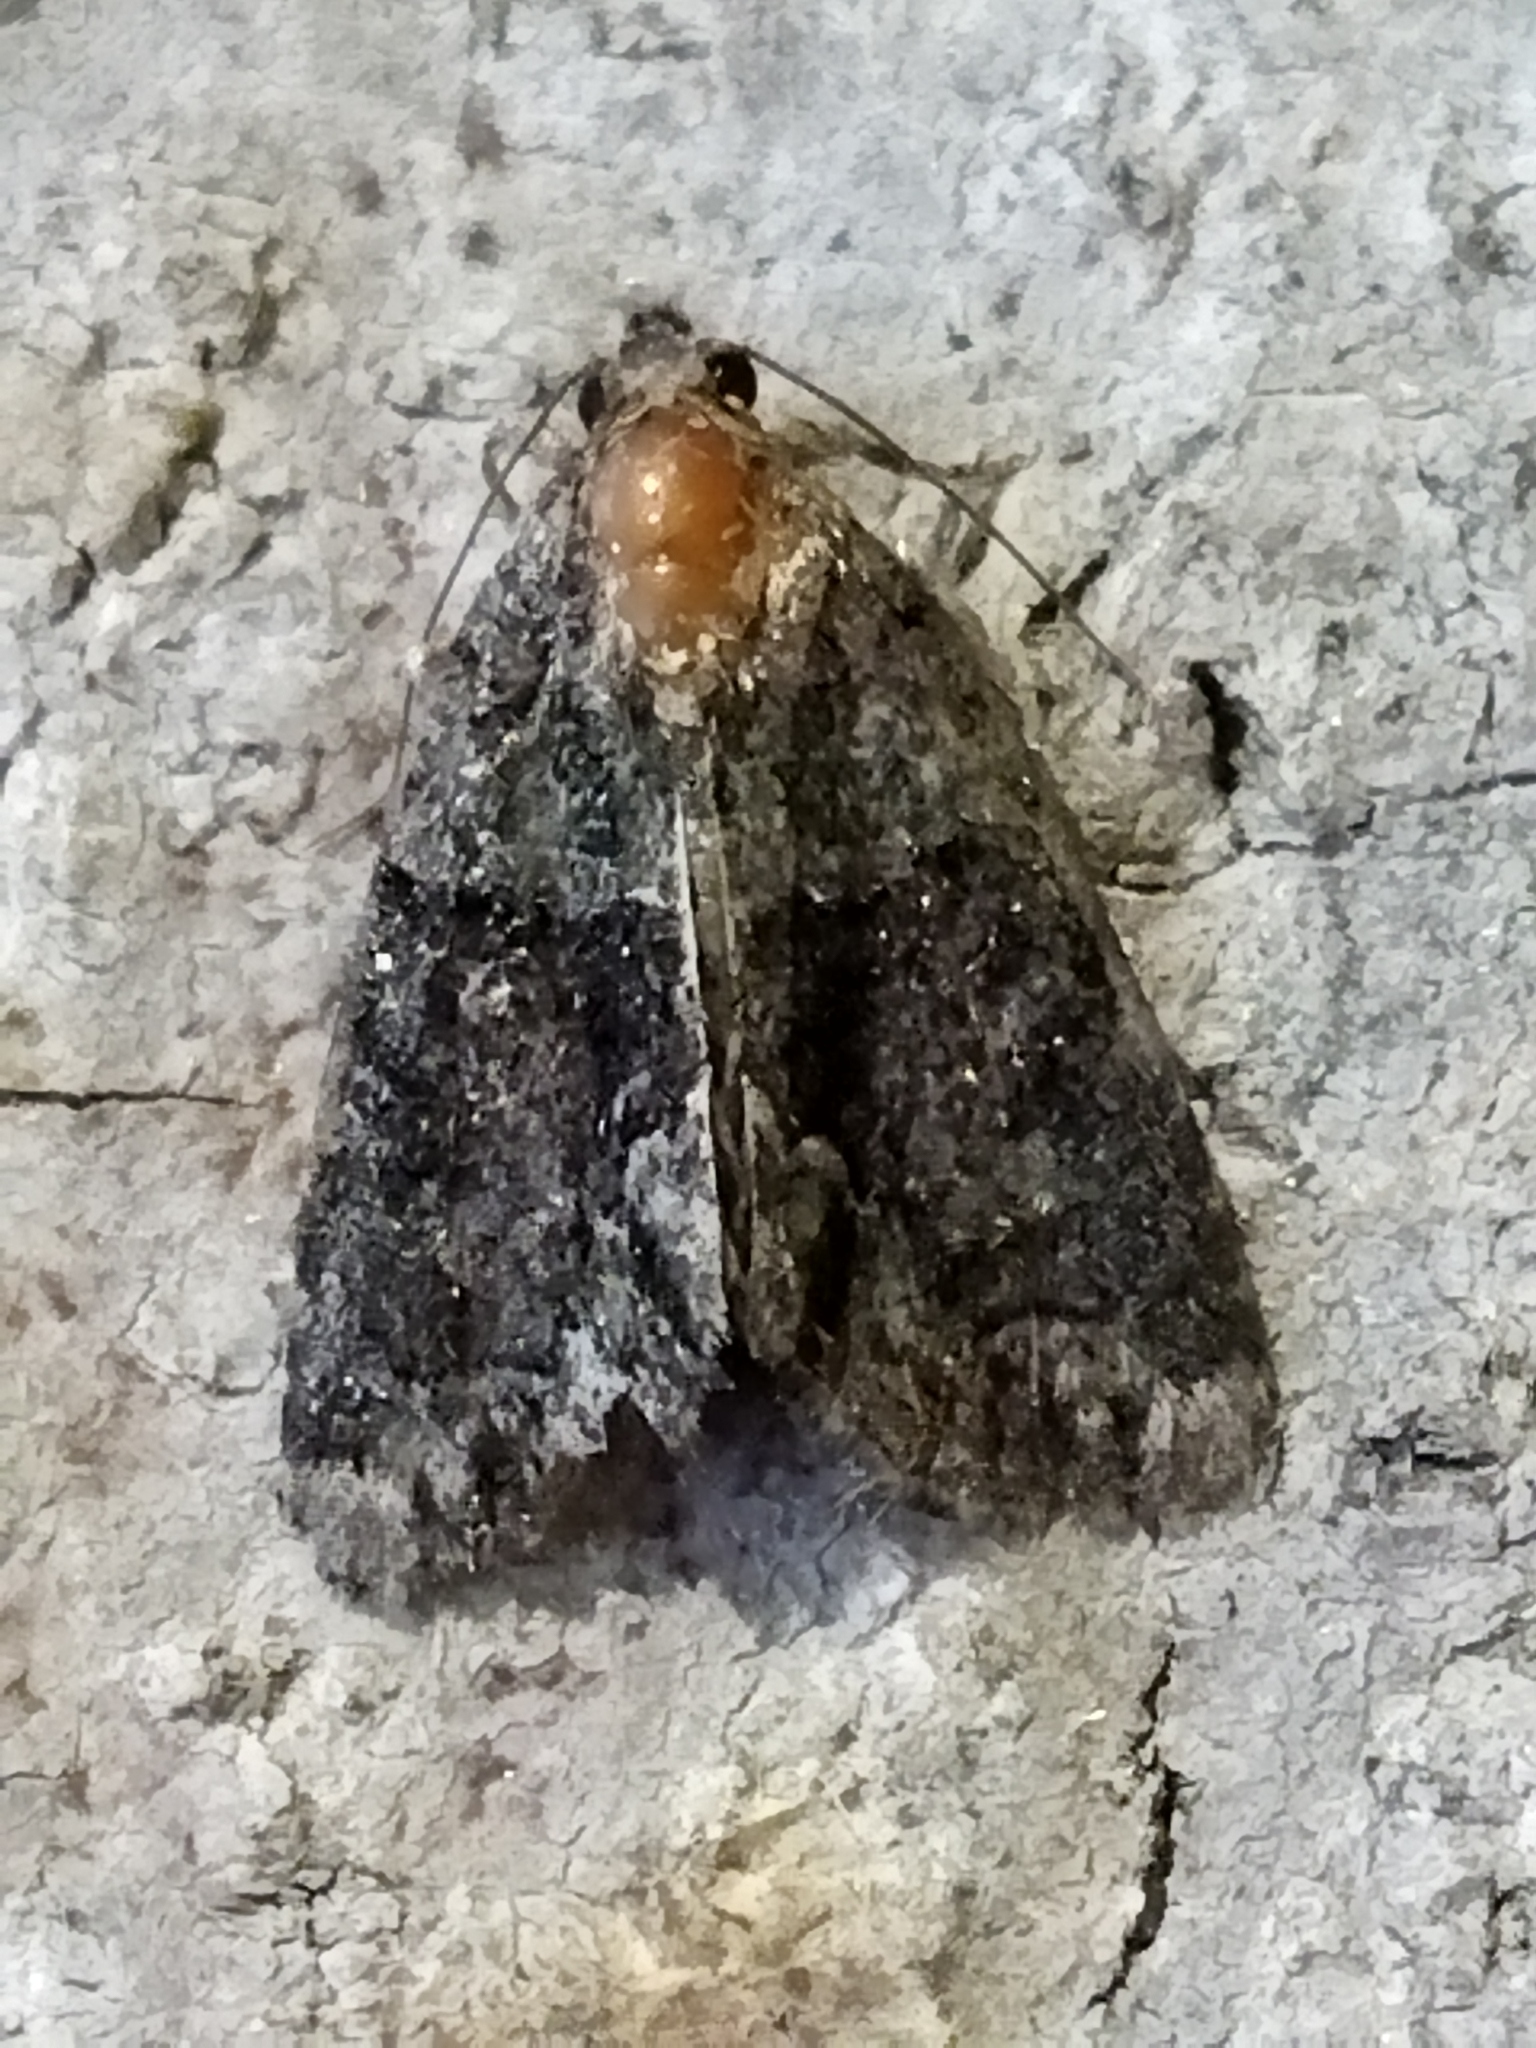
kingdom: Animalia
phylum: Arthropoda
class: Insecta
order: Lepidoptera
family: Noctuidae
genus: Cryphia
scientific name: Cryphia
